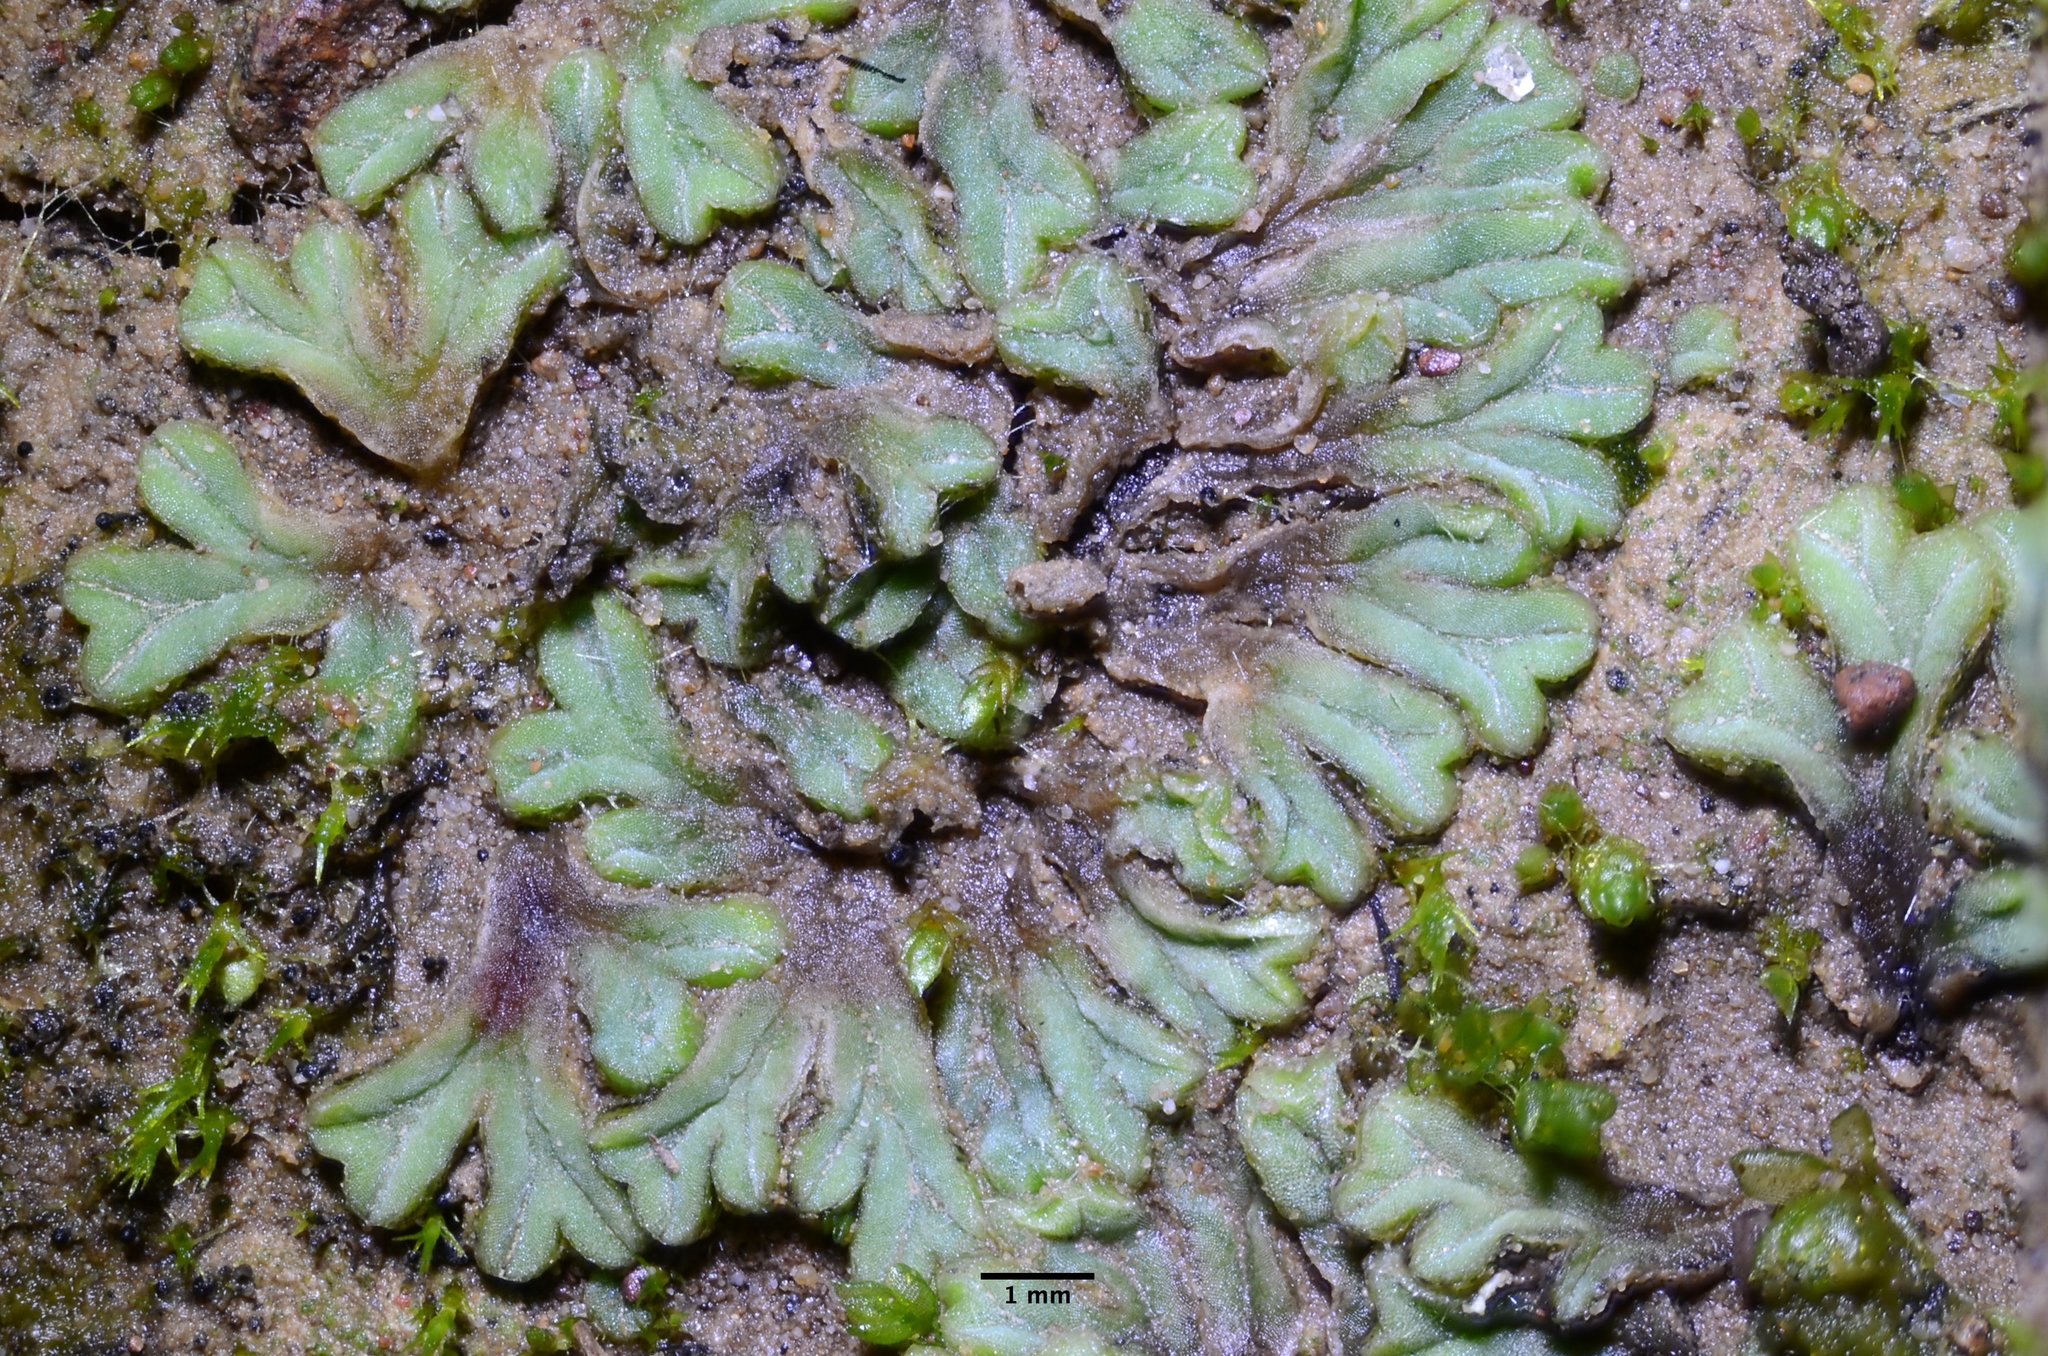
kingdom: Plantae
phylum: Marchantiophyta
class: Marchantiopsida
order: Marchantiales
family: Ricciaceae
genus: Riccia
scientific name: Riccia sorocarpa
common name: Common crystalwort
